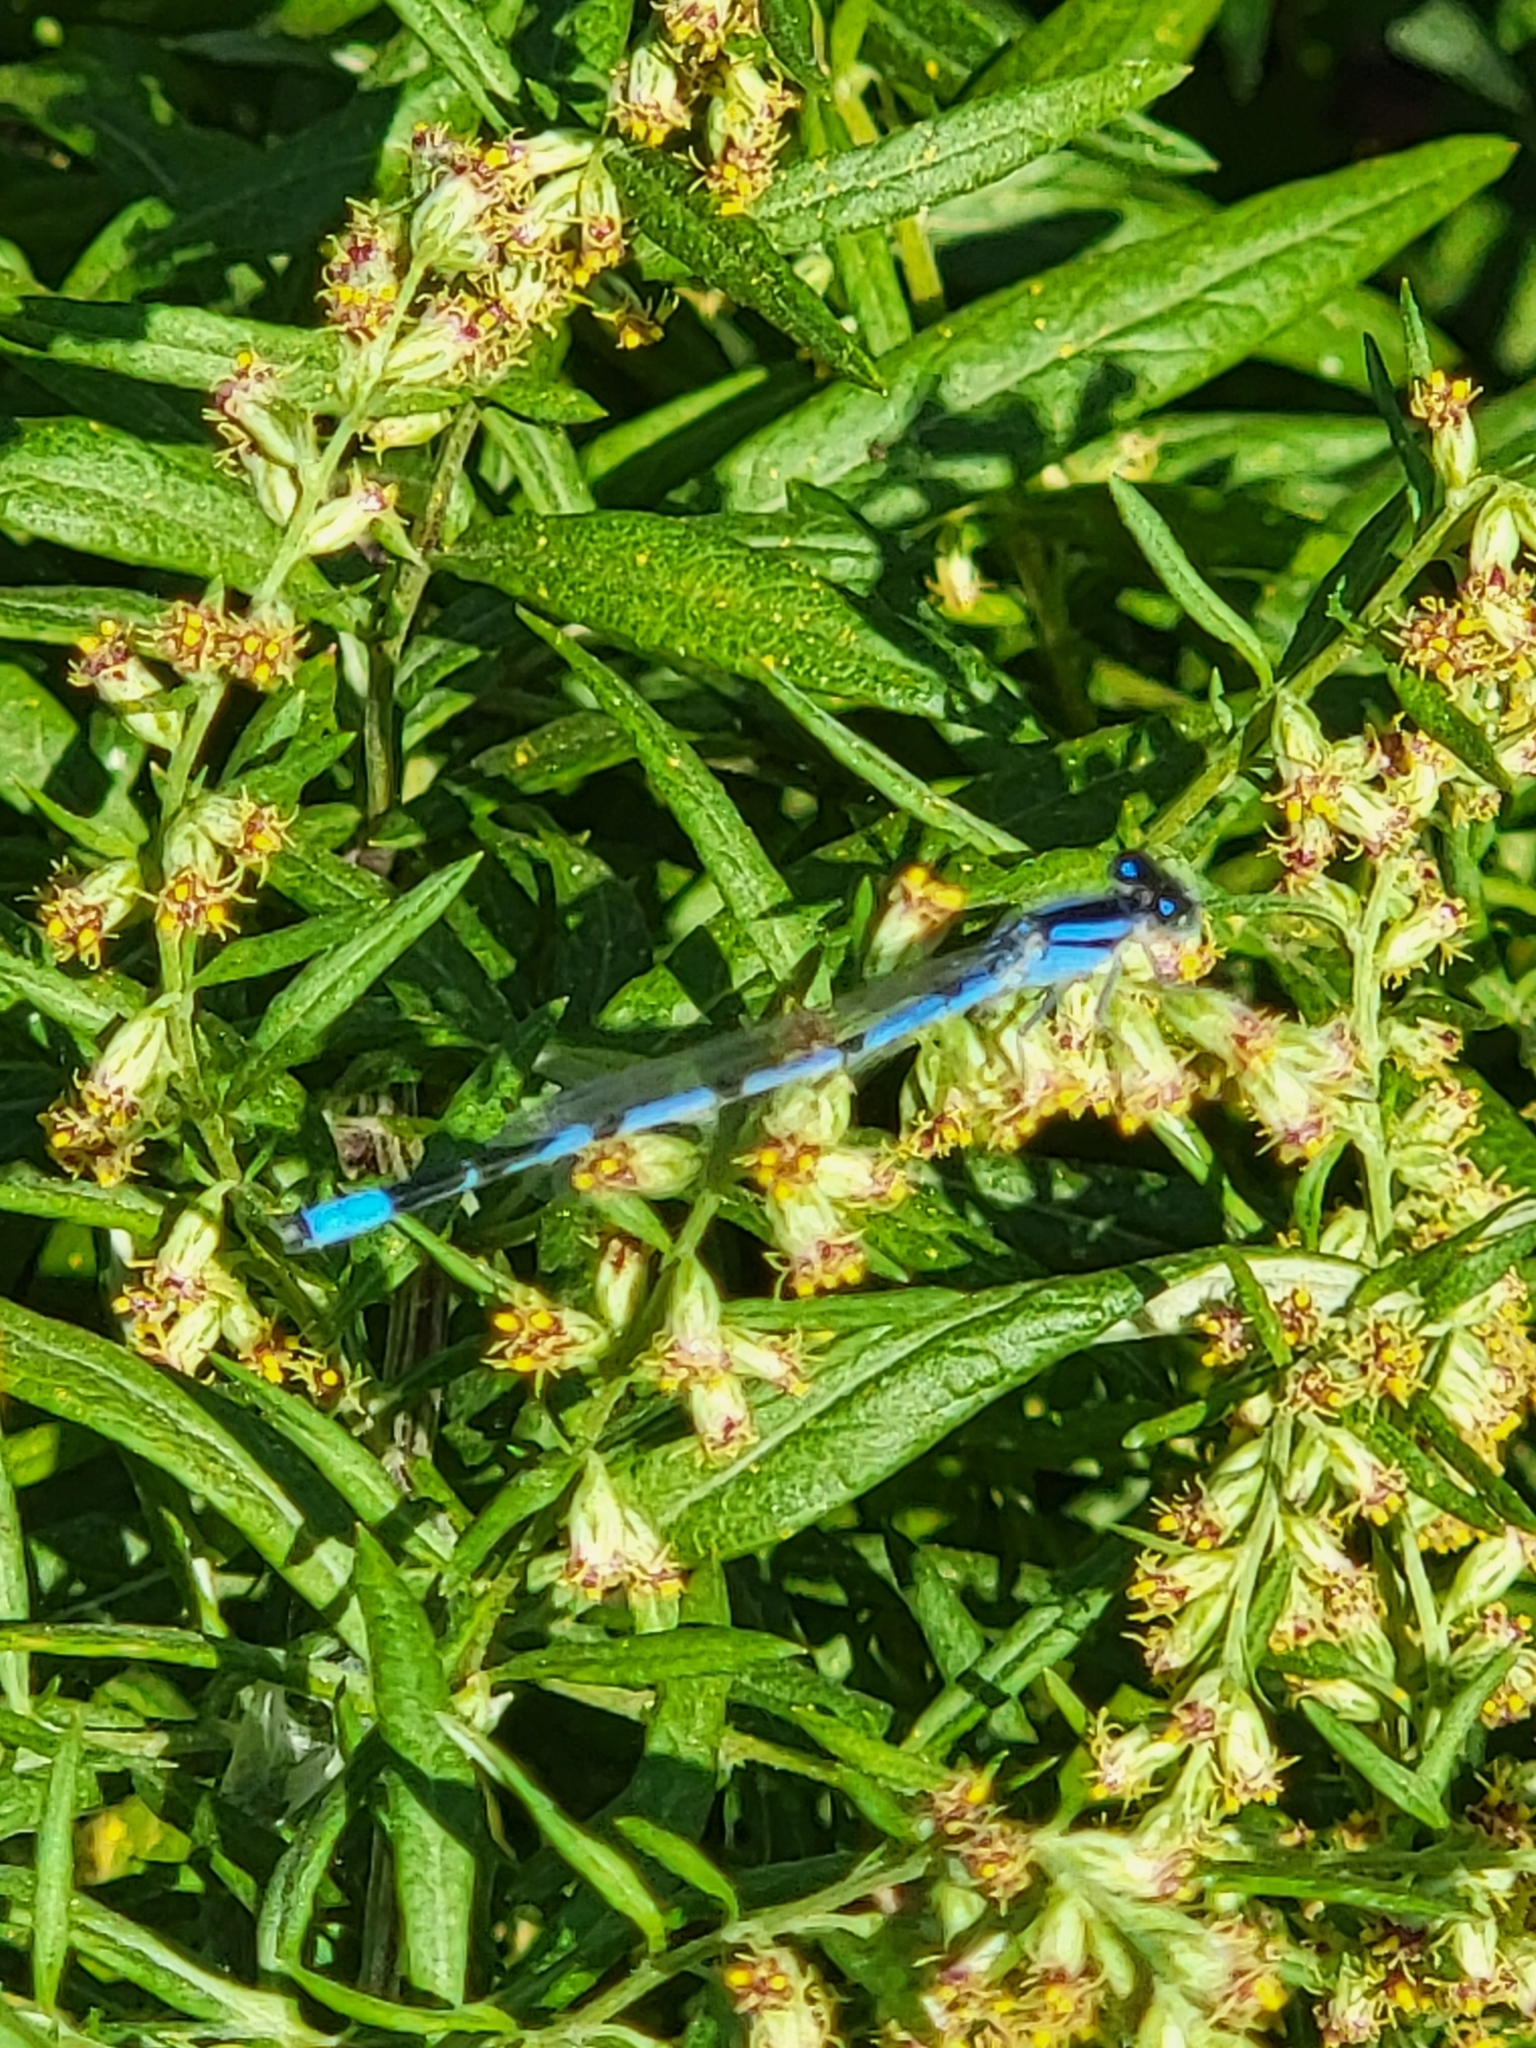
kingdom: Animalia
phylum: Arthropoda
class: Insecta
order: Odonata
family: Coenagrionidae
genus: Enallagma
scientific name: Enallagma civile
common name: Damselfly
